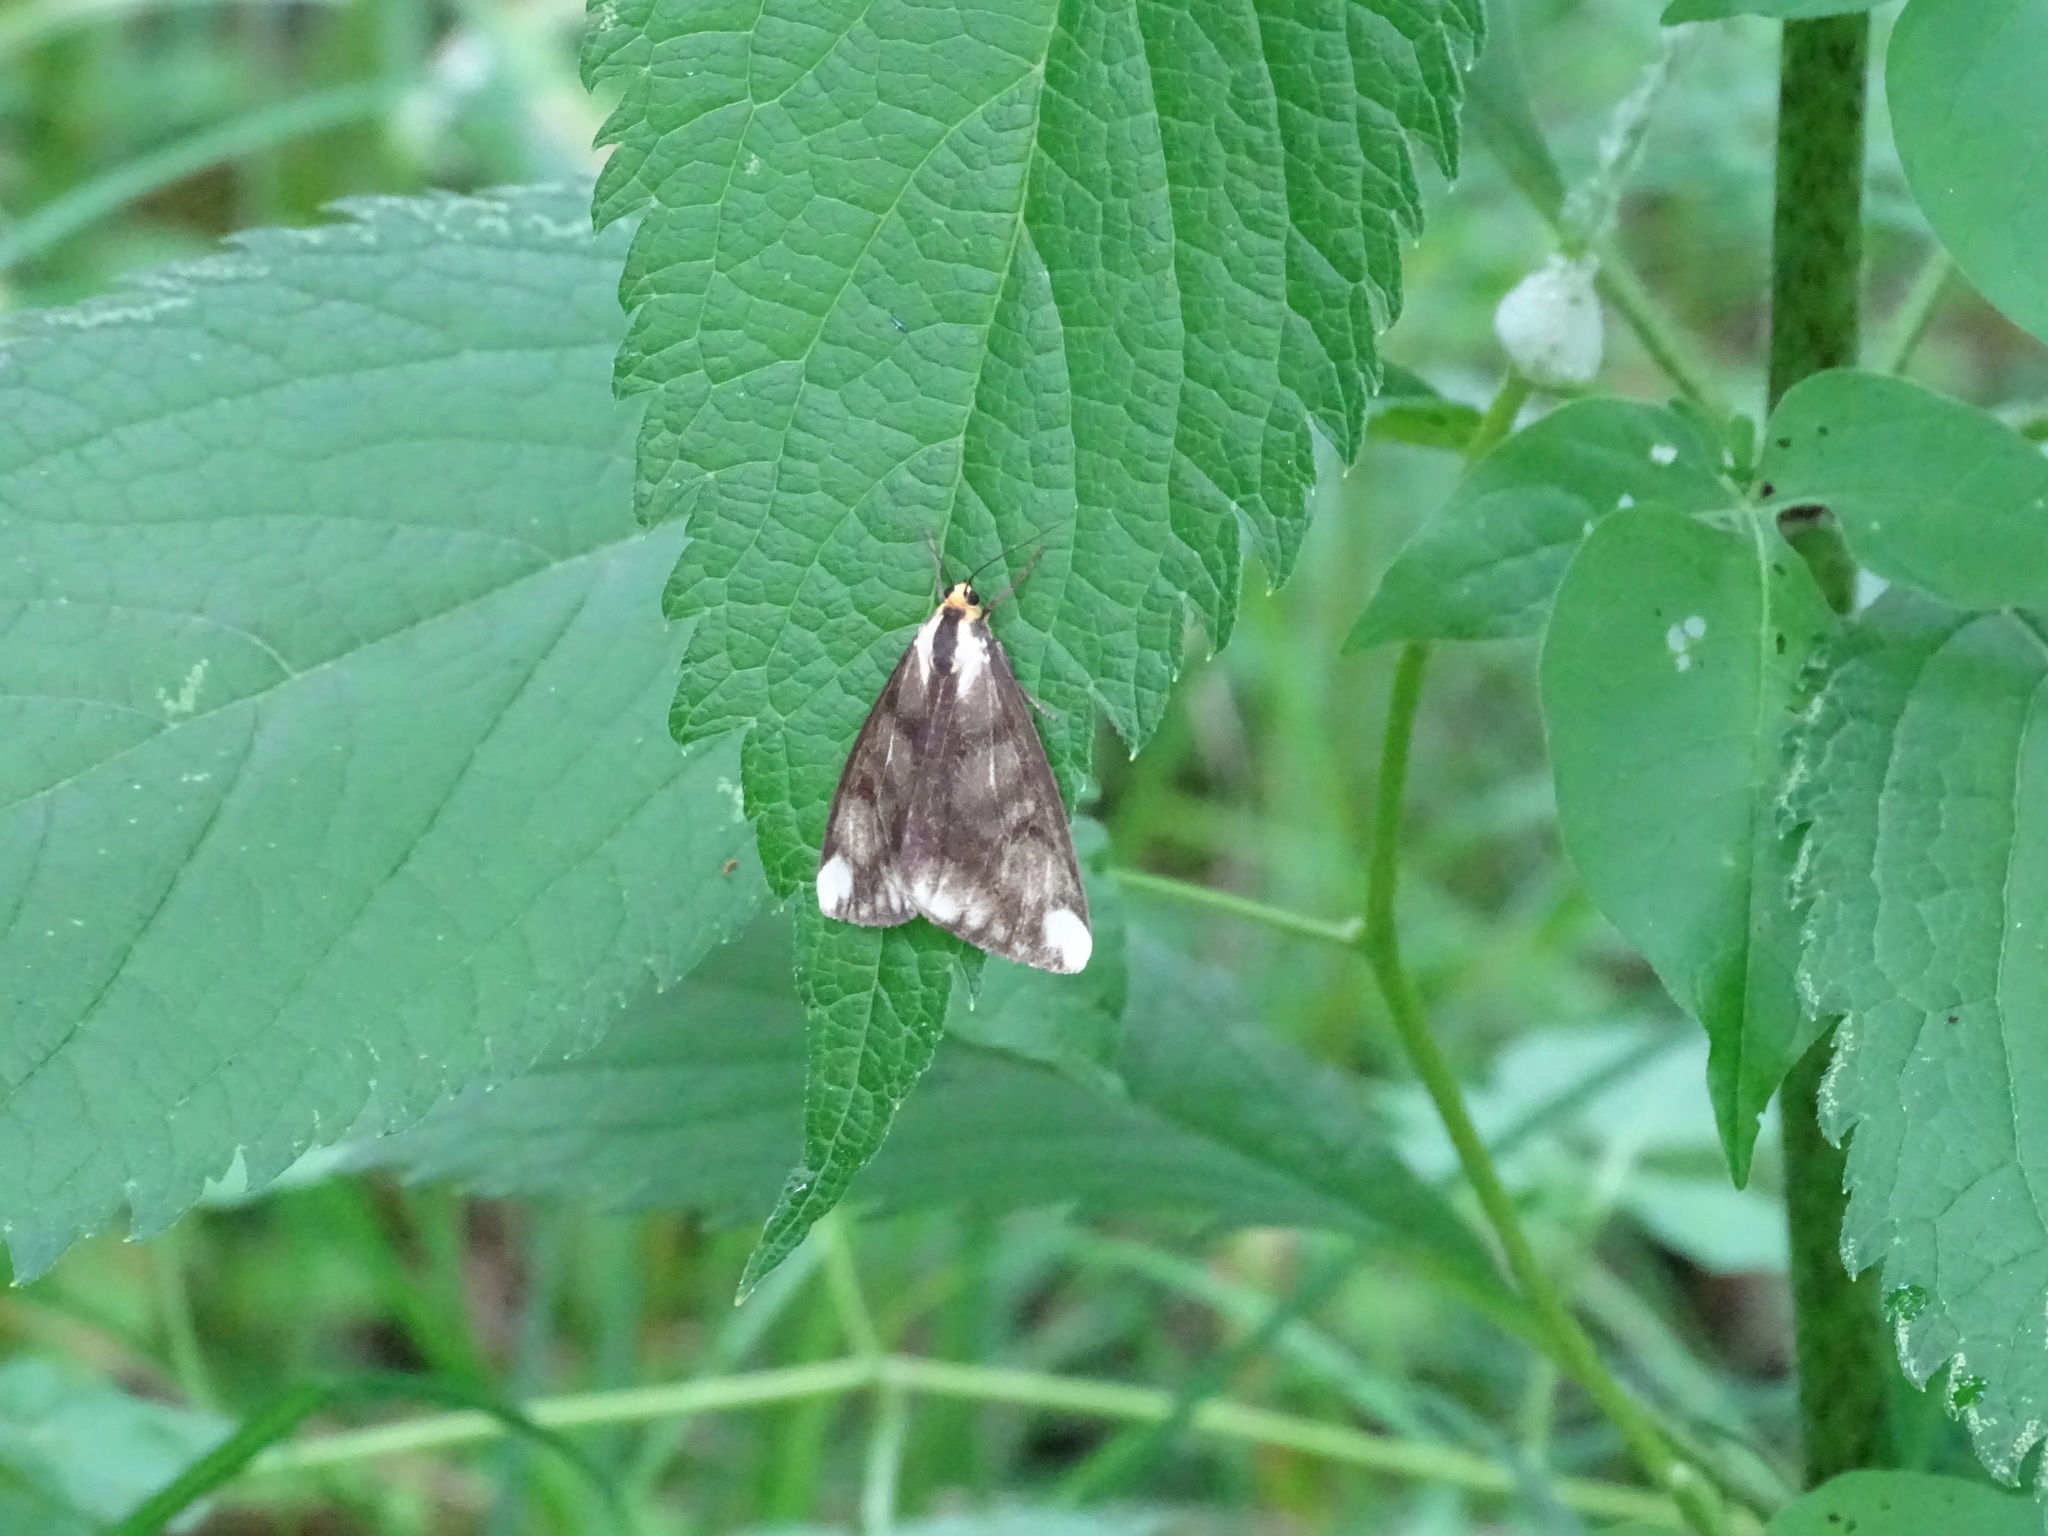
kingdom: Animalia
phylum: Arthropoda
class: Insecta
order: Lepidoptera
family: Erebidae
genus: Haploa
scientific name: Haploa lecontei
